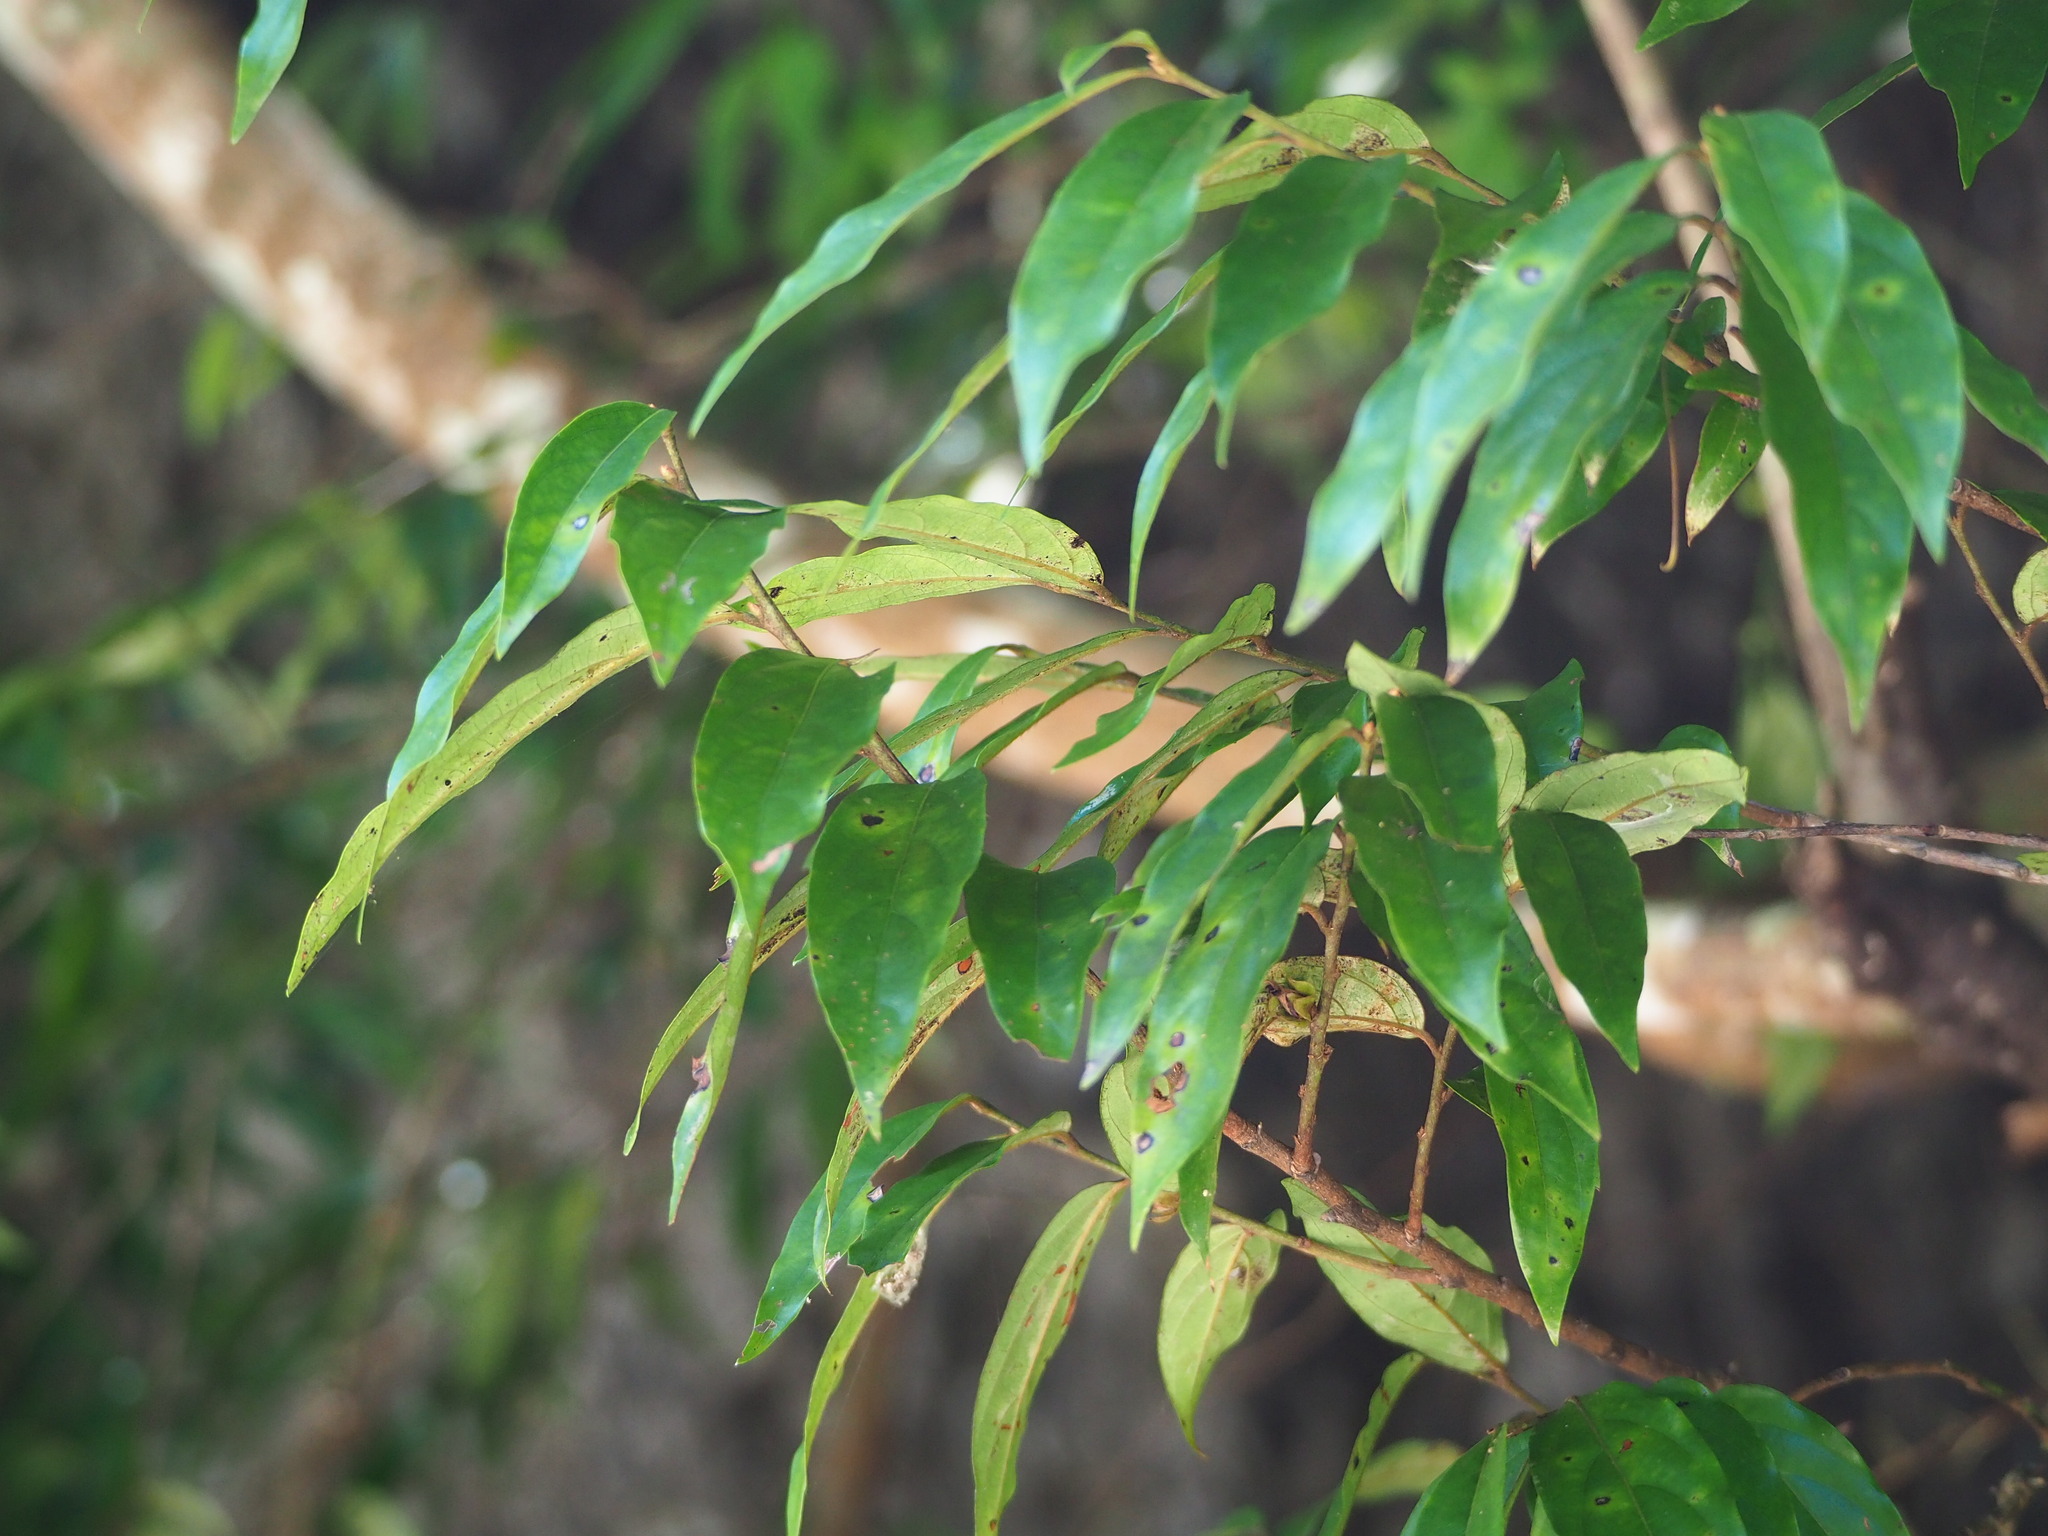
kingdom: Plantae
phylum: Tracheophyta
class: Magnoliopsida
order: Ericales
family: Ebenaceae
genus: Diospyros
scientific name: Diospyros eriantha
